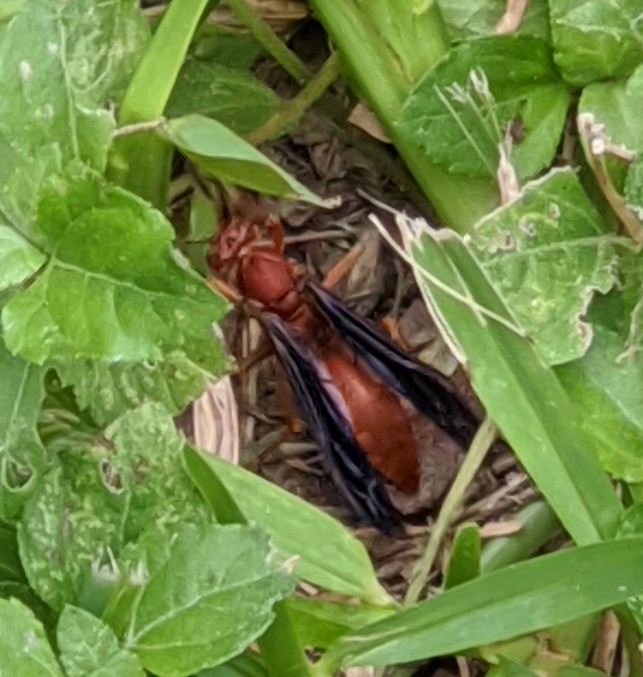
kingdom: Animalia
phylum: Arthropoda
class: Insecta
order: Hymenoptera
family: Eumenidae
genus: Polistes
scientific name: Polistes carolina
